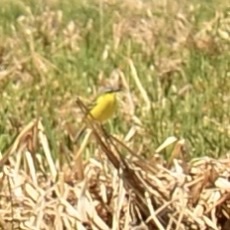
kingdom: Animalia
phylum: Chordata
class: Aves
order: Passeriformes
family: Motacillidae
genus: Motacilla
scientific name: Motacilla flava
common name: Western yellow wagtail
